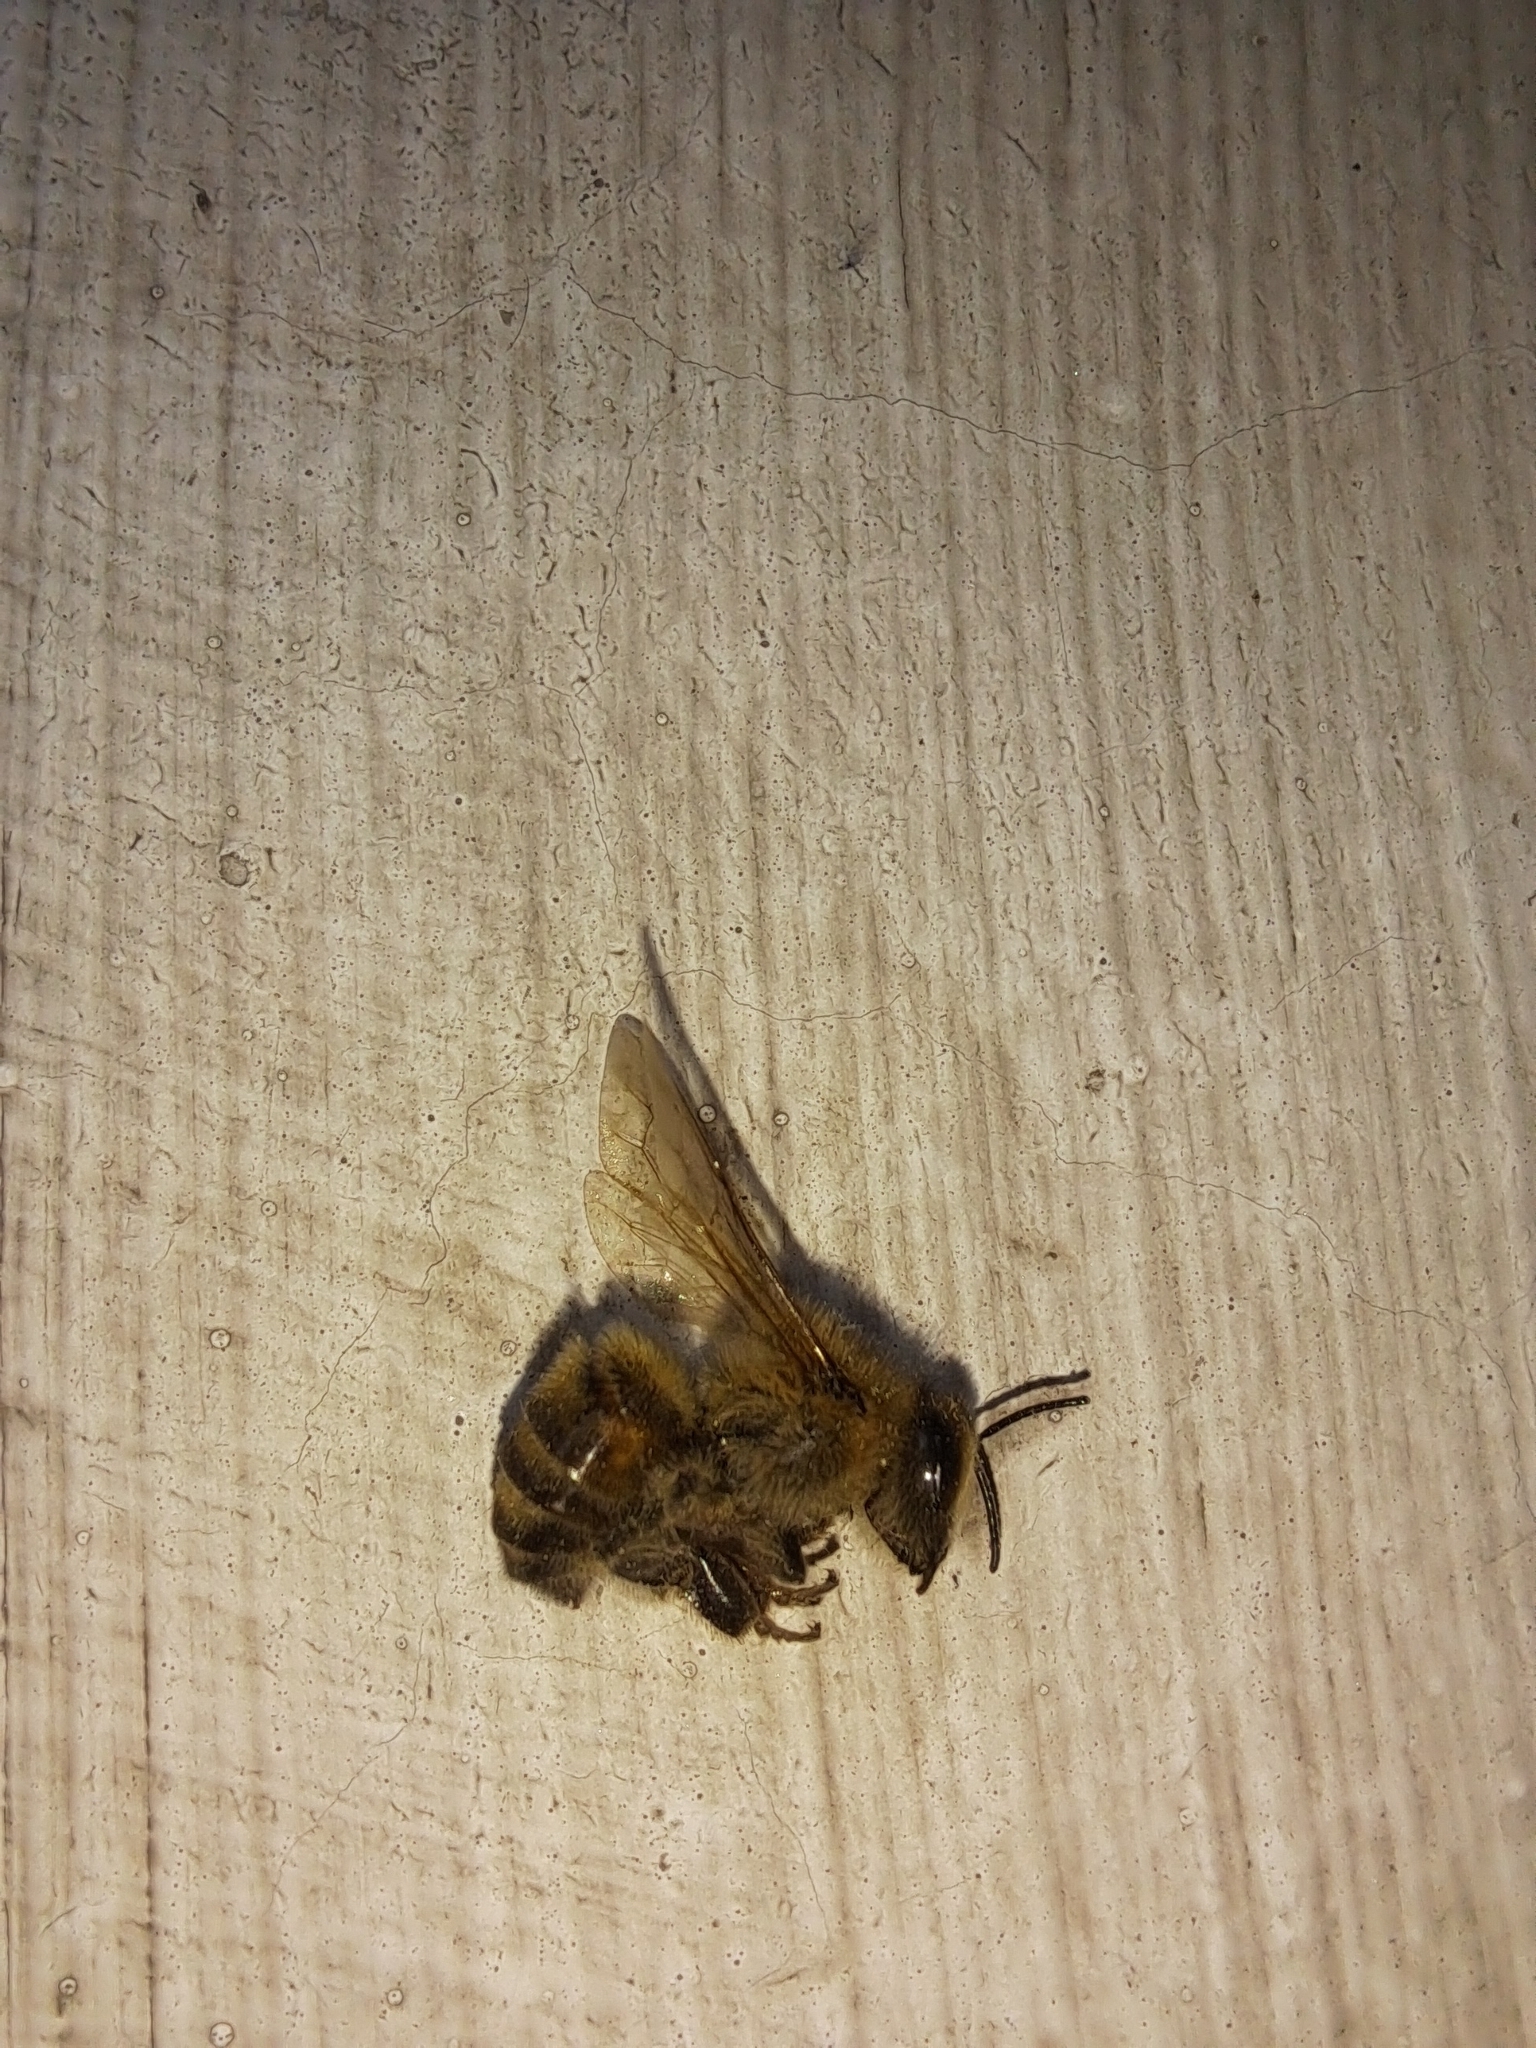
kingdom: Animalia
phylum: Arthropoda
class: Insecta
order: Hymenoptera
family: Apidae
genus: Apis
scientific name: Apis mellifera
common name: Honey bee
